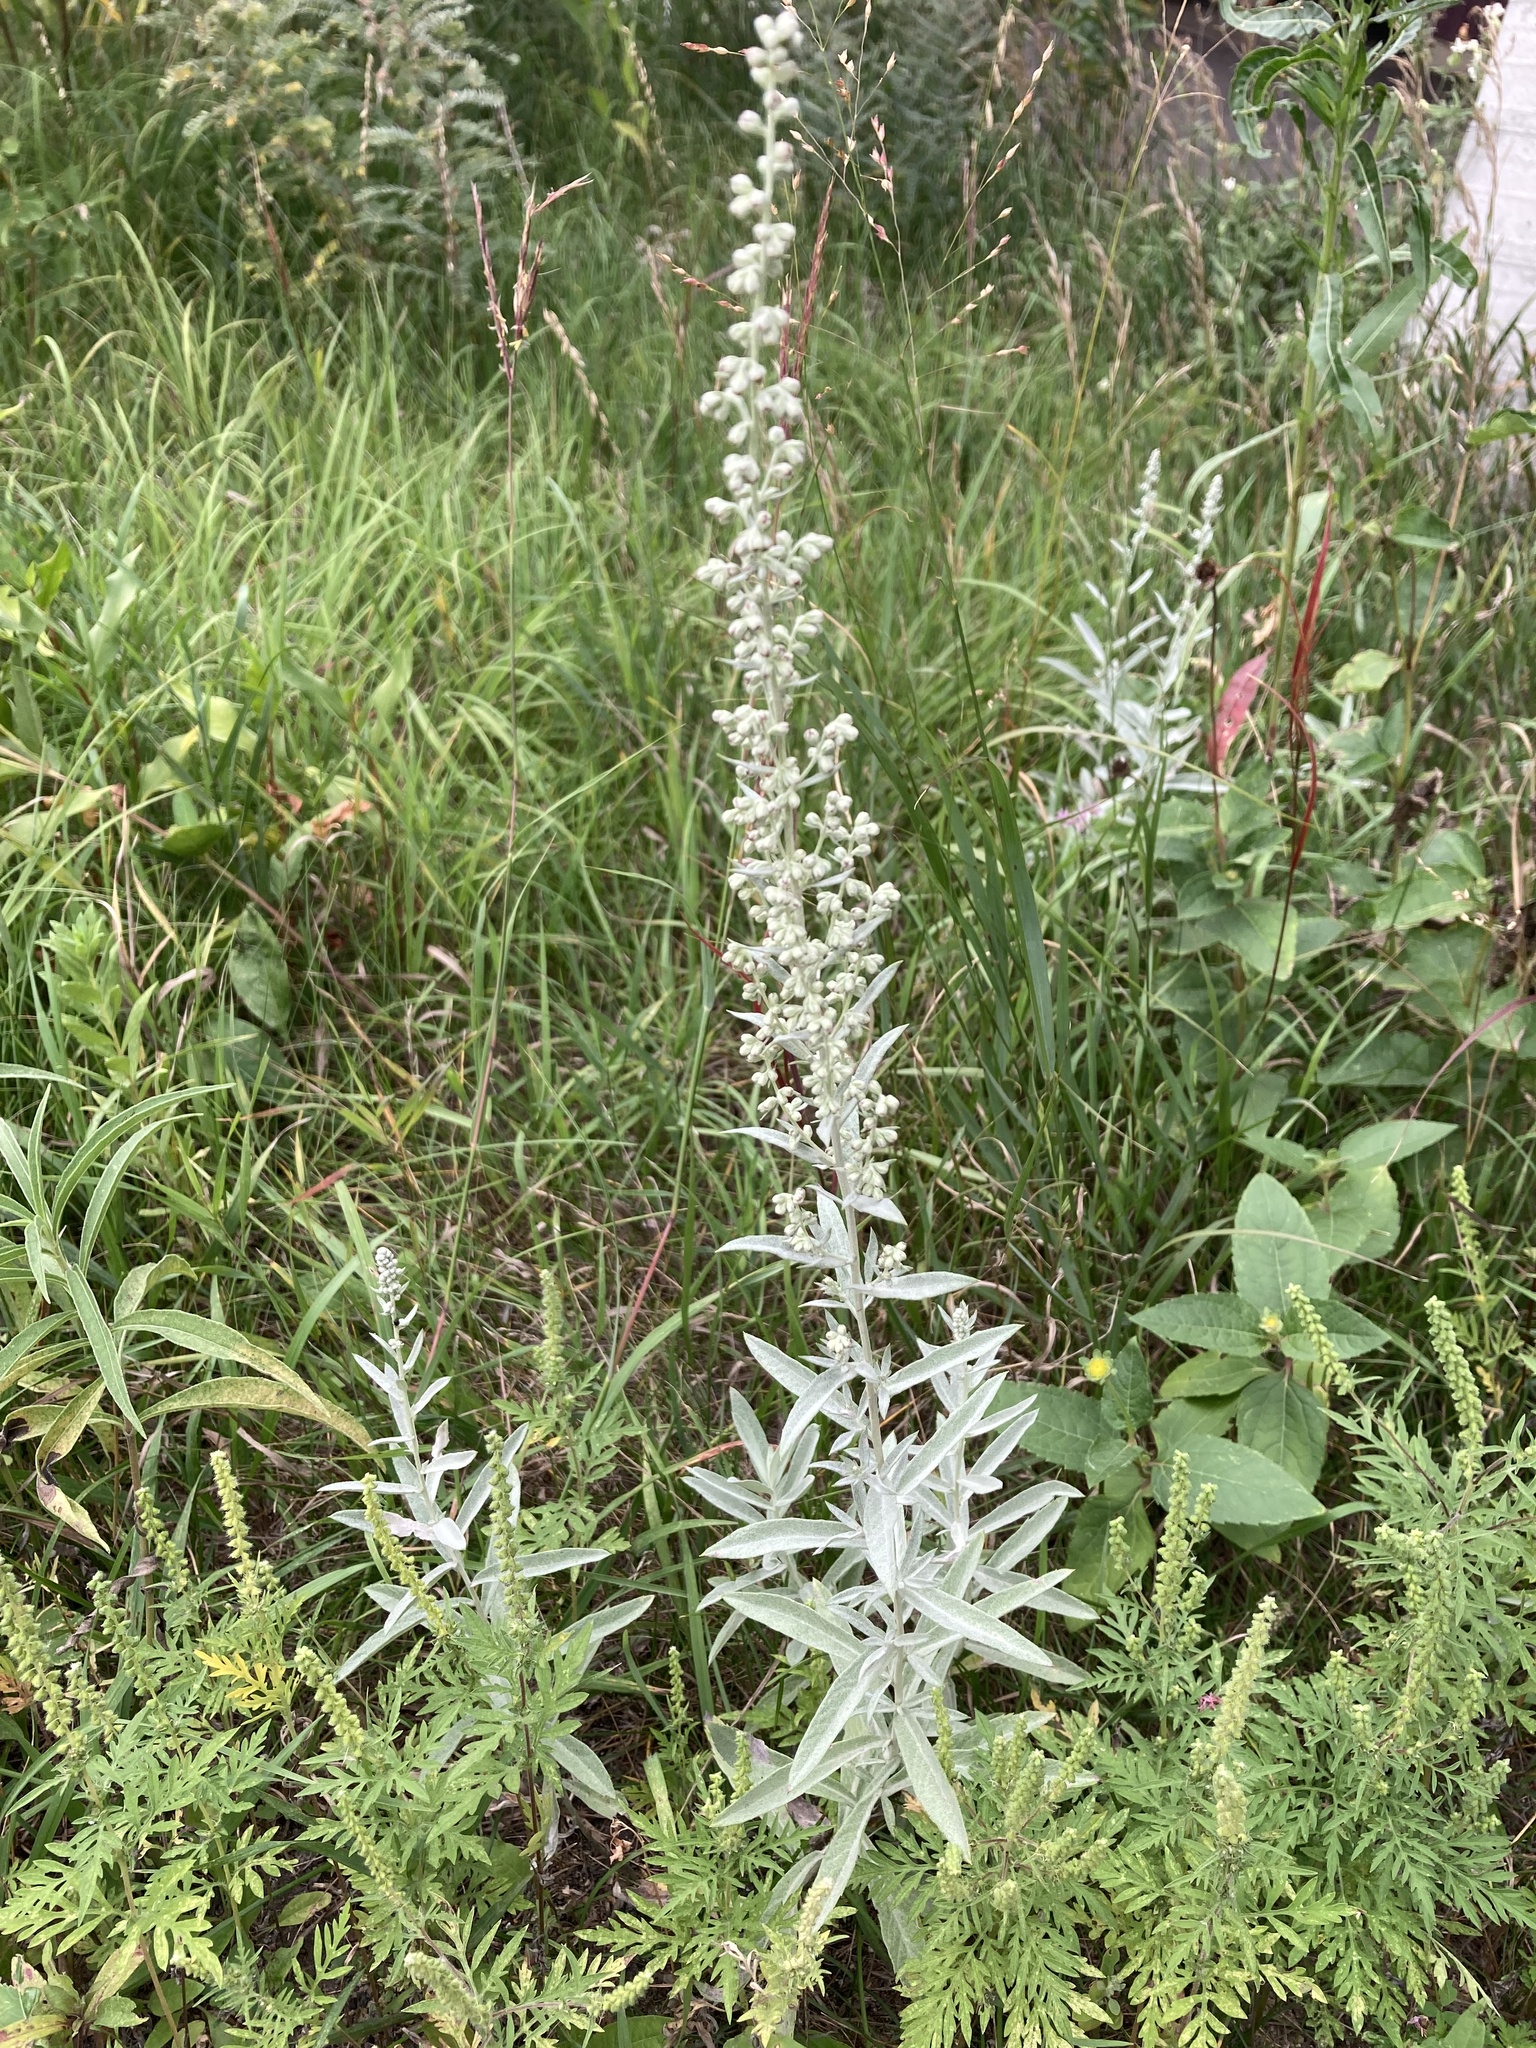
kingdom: Plantae
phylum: Tracheophyta
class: Magnoliopsida
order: Asterales
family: Asteraceae
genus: Artemisia
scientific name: Artemisia ludoviciana
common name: Western mugwort
